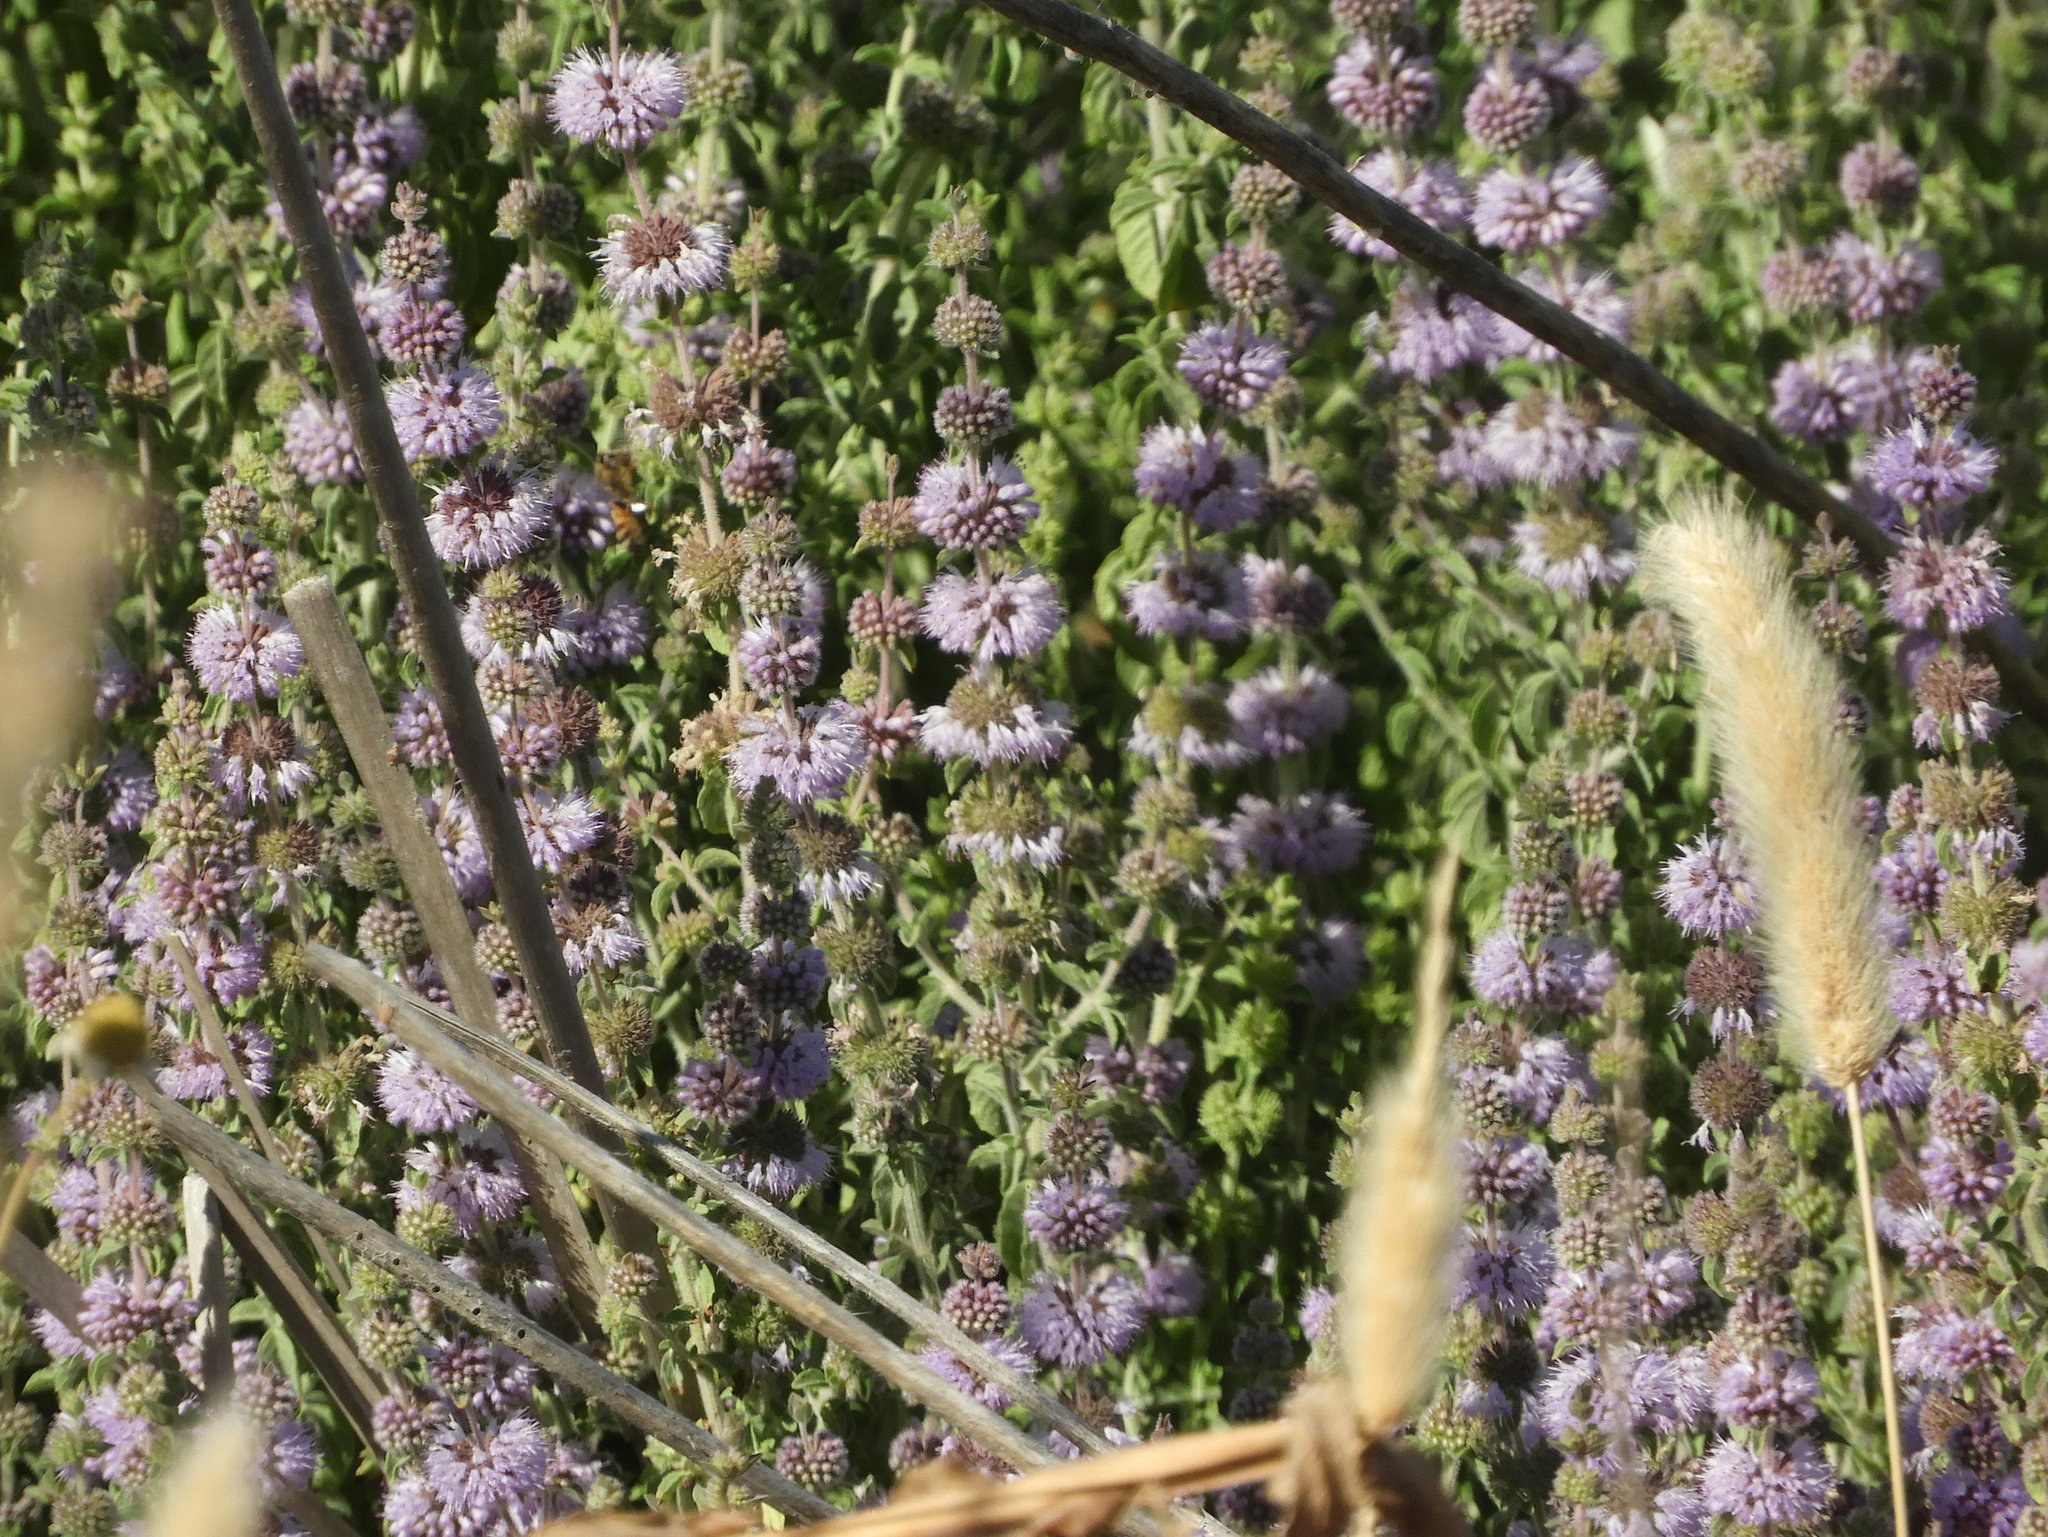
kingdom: Plantae
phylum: Tracheophyta
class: Magnoliopsida
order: Lamiales
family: Lamiaceae
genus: Mentha
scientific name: Mentha pulegium
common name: Pennyroyal
